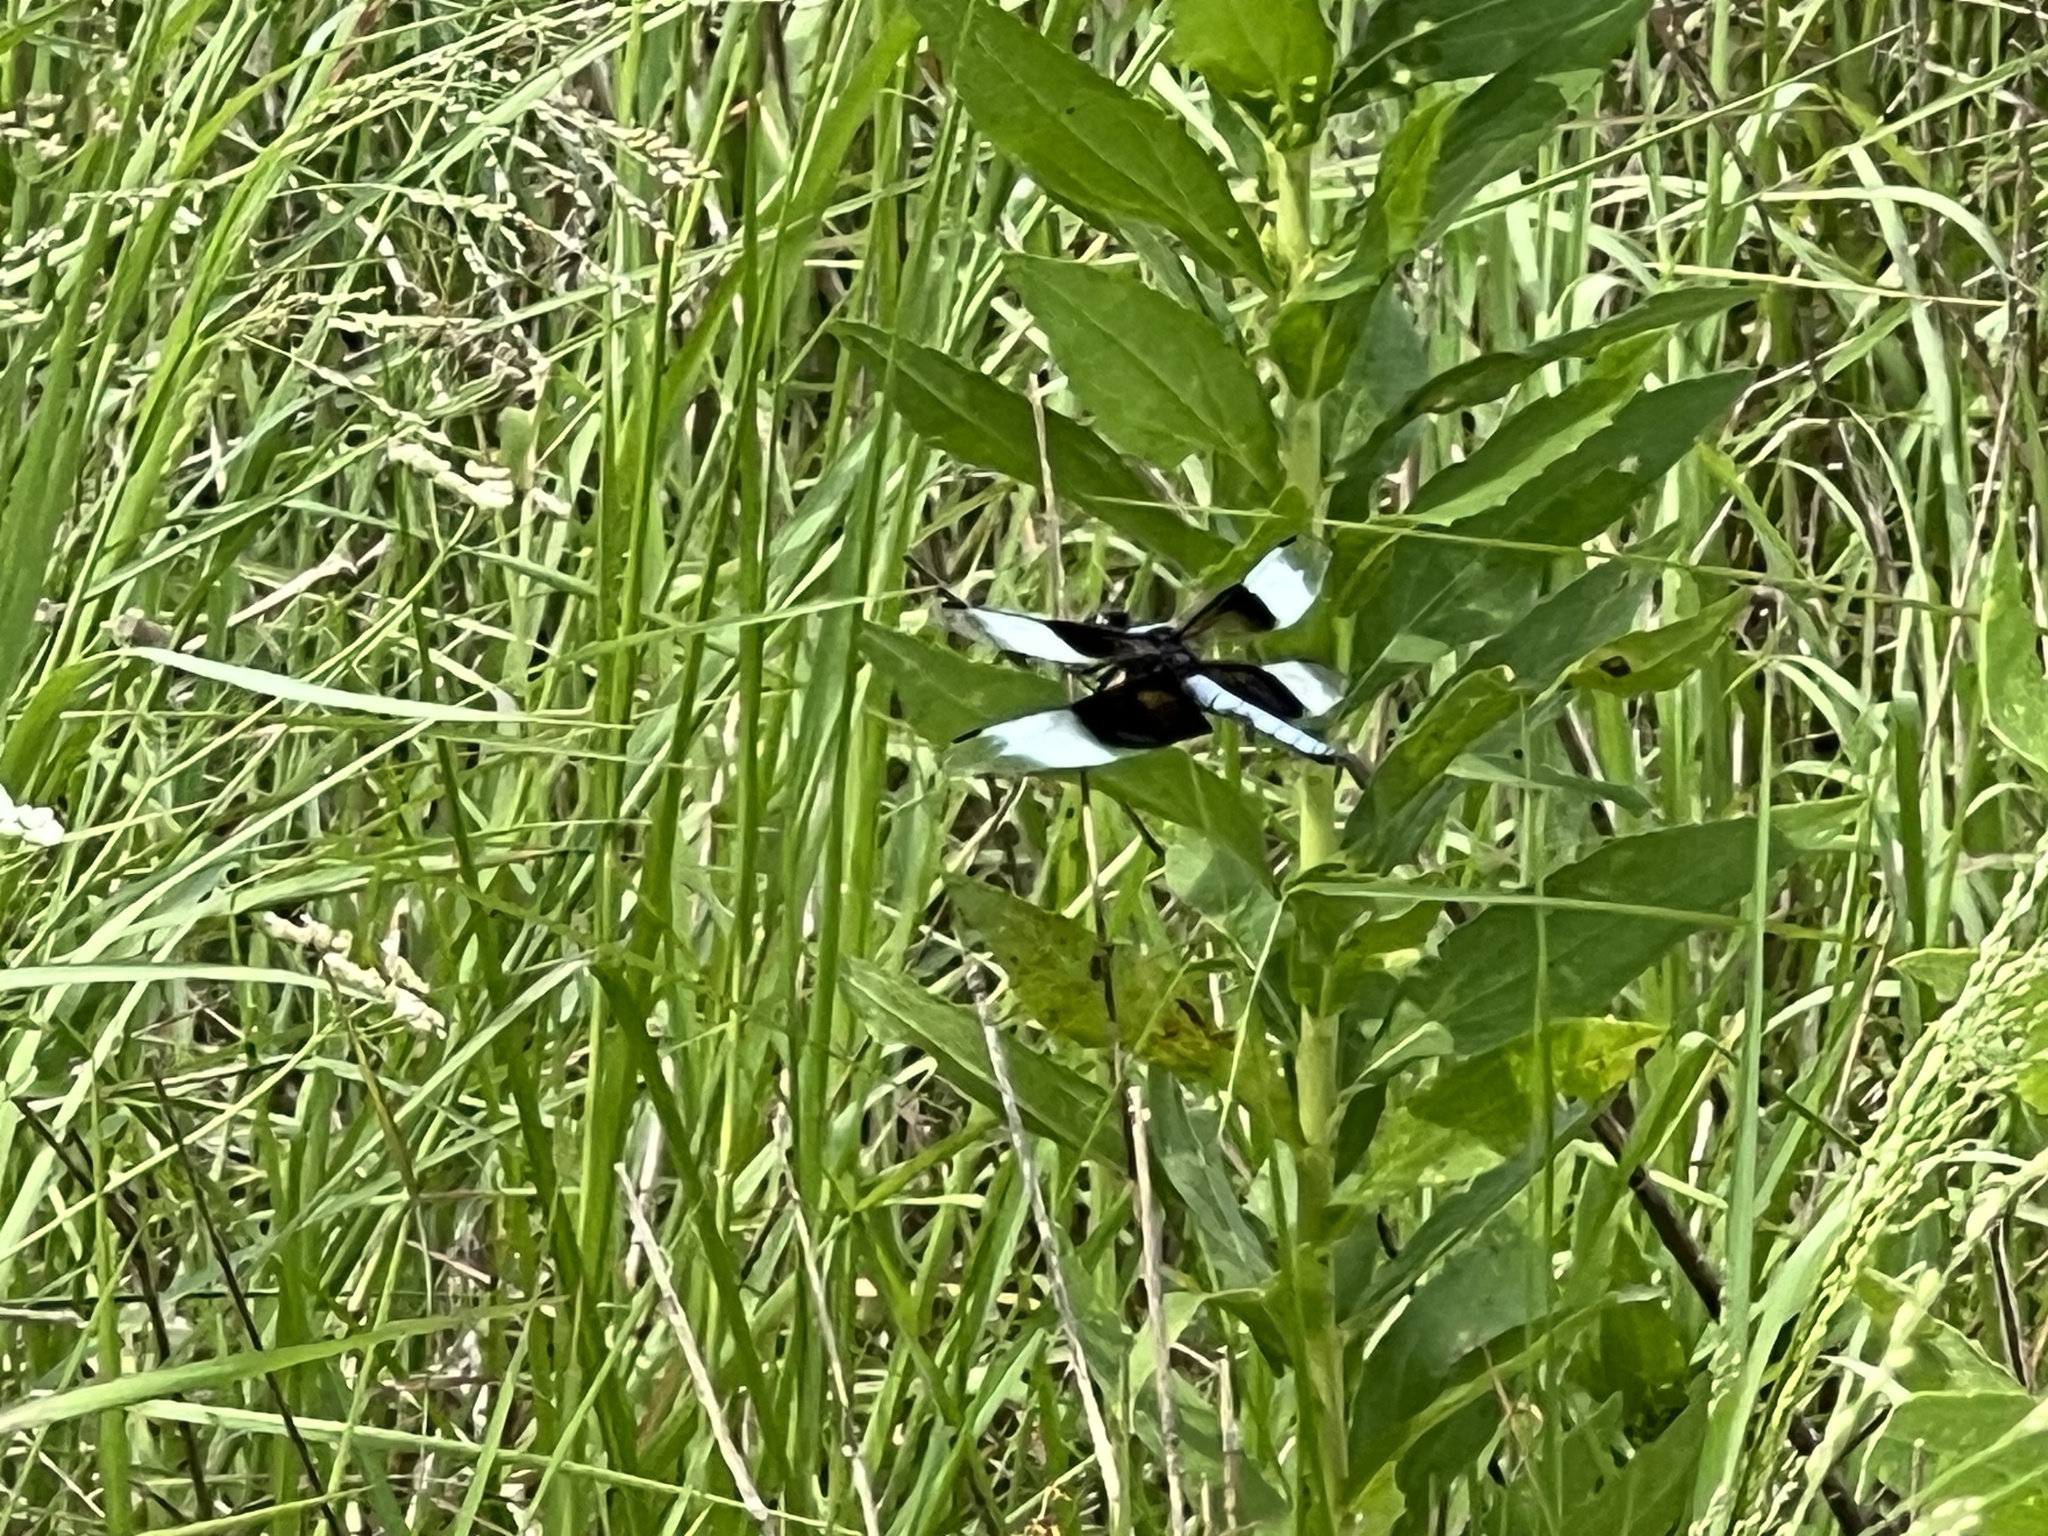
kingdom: Animalia
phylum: Arthropoda
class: Insecta
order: Odonata
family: Libellulidae
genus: Libellula
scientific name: Libellula luctuosa
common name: Widow skimmer
